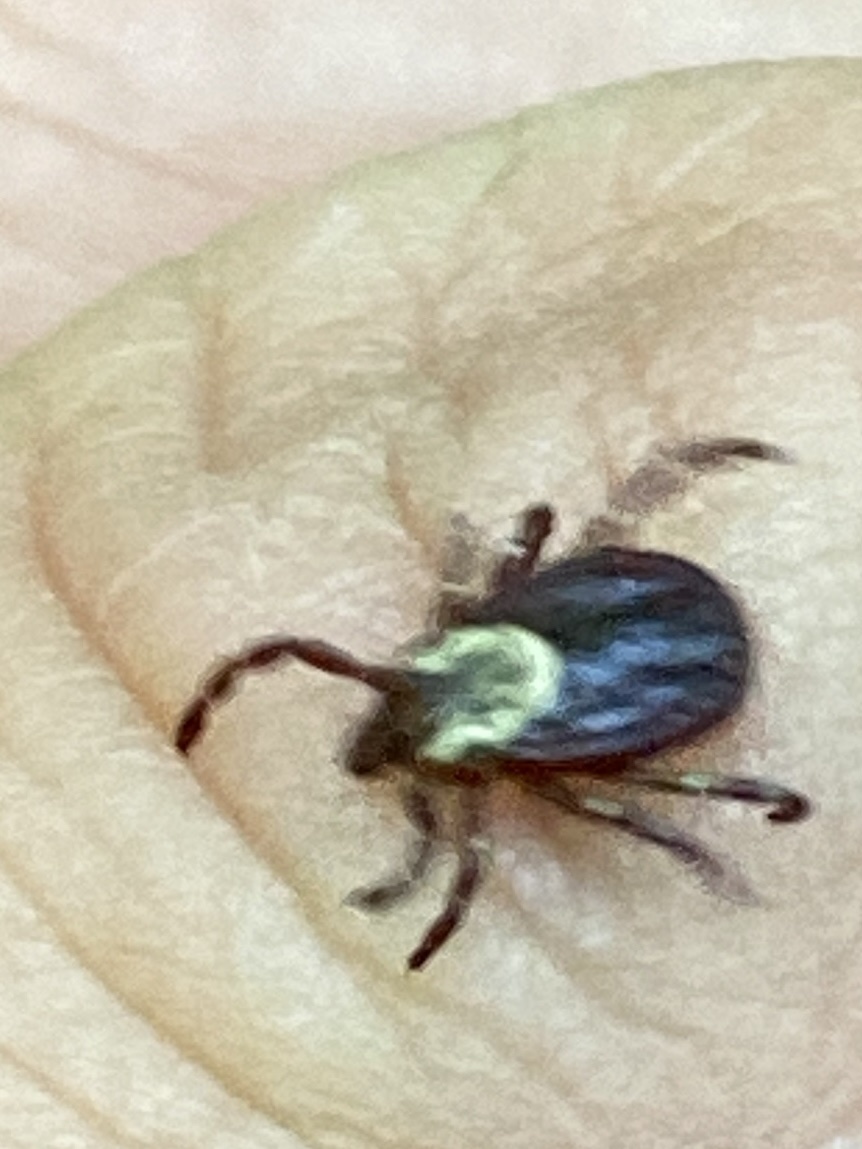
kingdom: Animalia
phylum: Arthropoda
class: Arachnida
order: Ixodida
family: Ixodidae
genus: Dermacentor
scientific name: Dermacentor variabilis
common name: American dog tick
